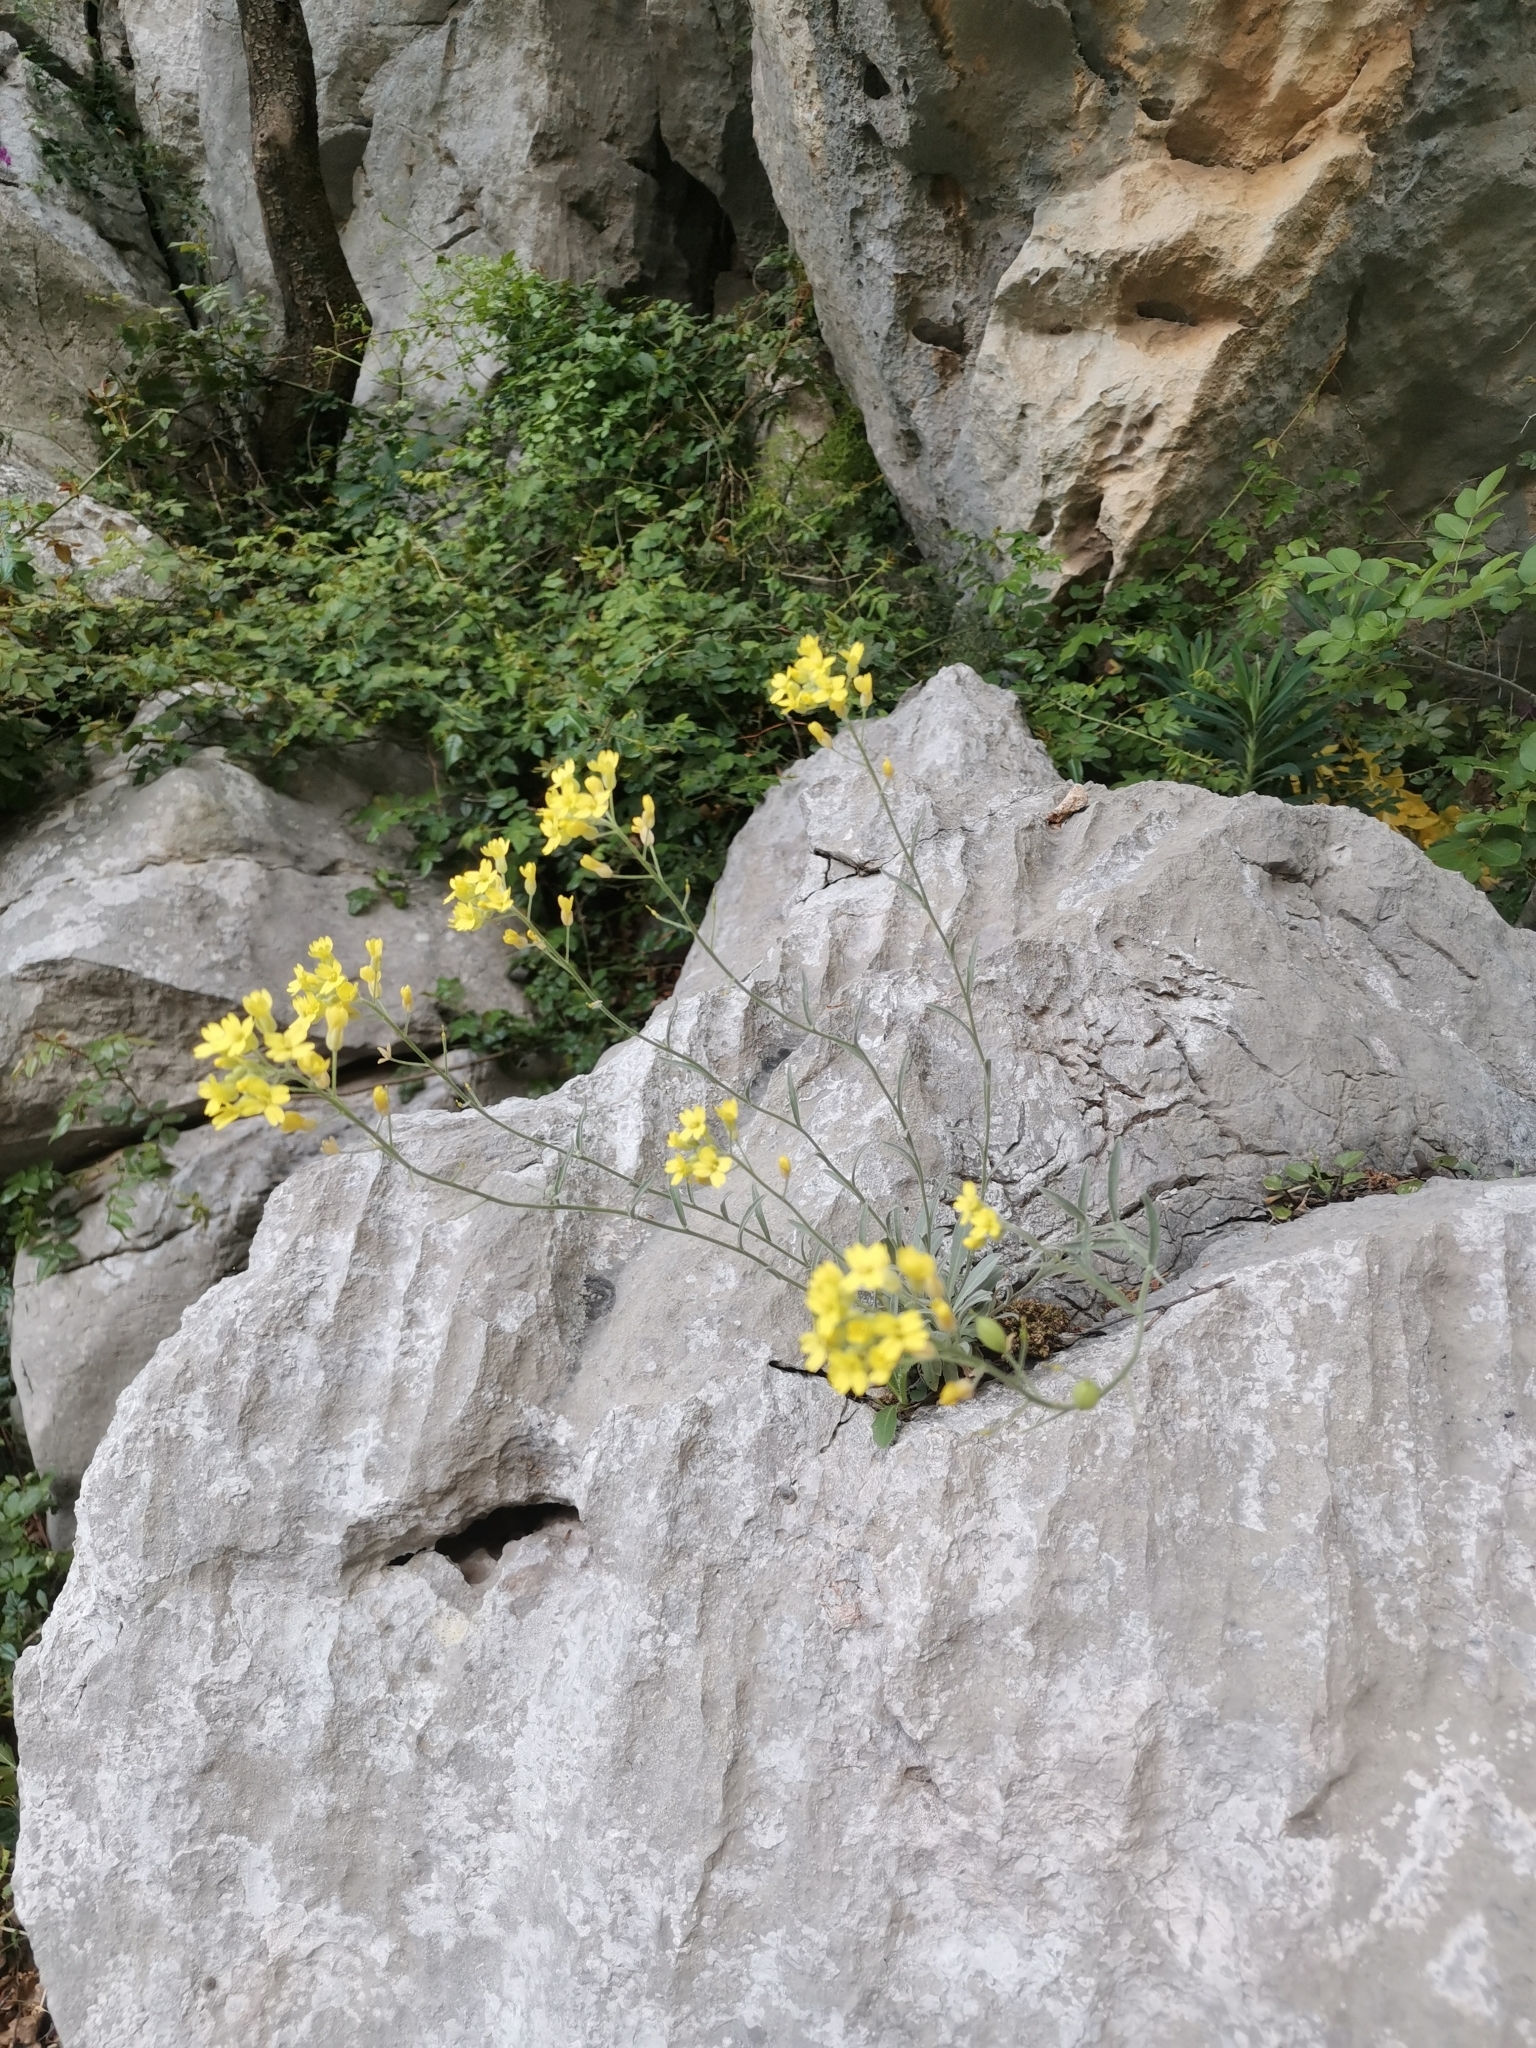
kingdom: Plantae
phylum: Tracheophyta
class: Magnoliopsida
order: Brassicales
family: Brassicaceae
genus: Aurinia
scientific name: Aurinia saxatilis
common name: Golden-tuft alyssum
